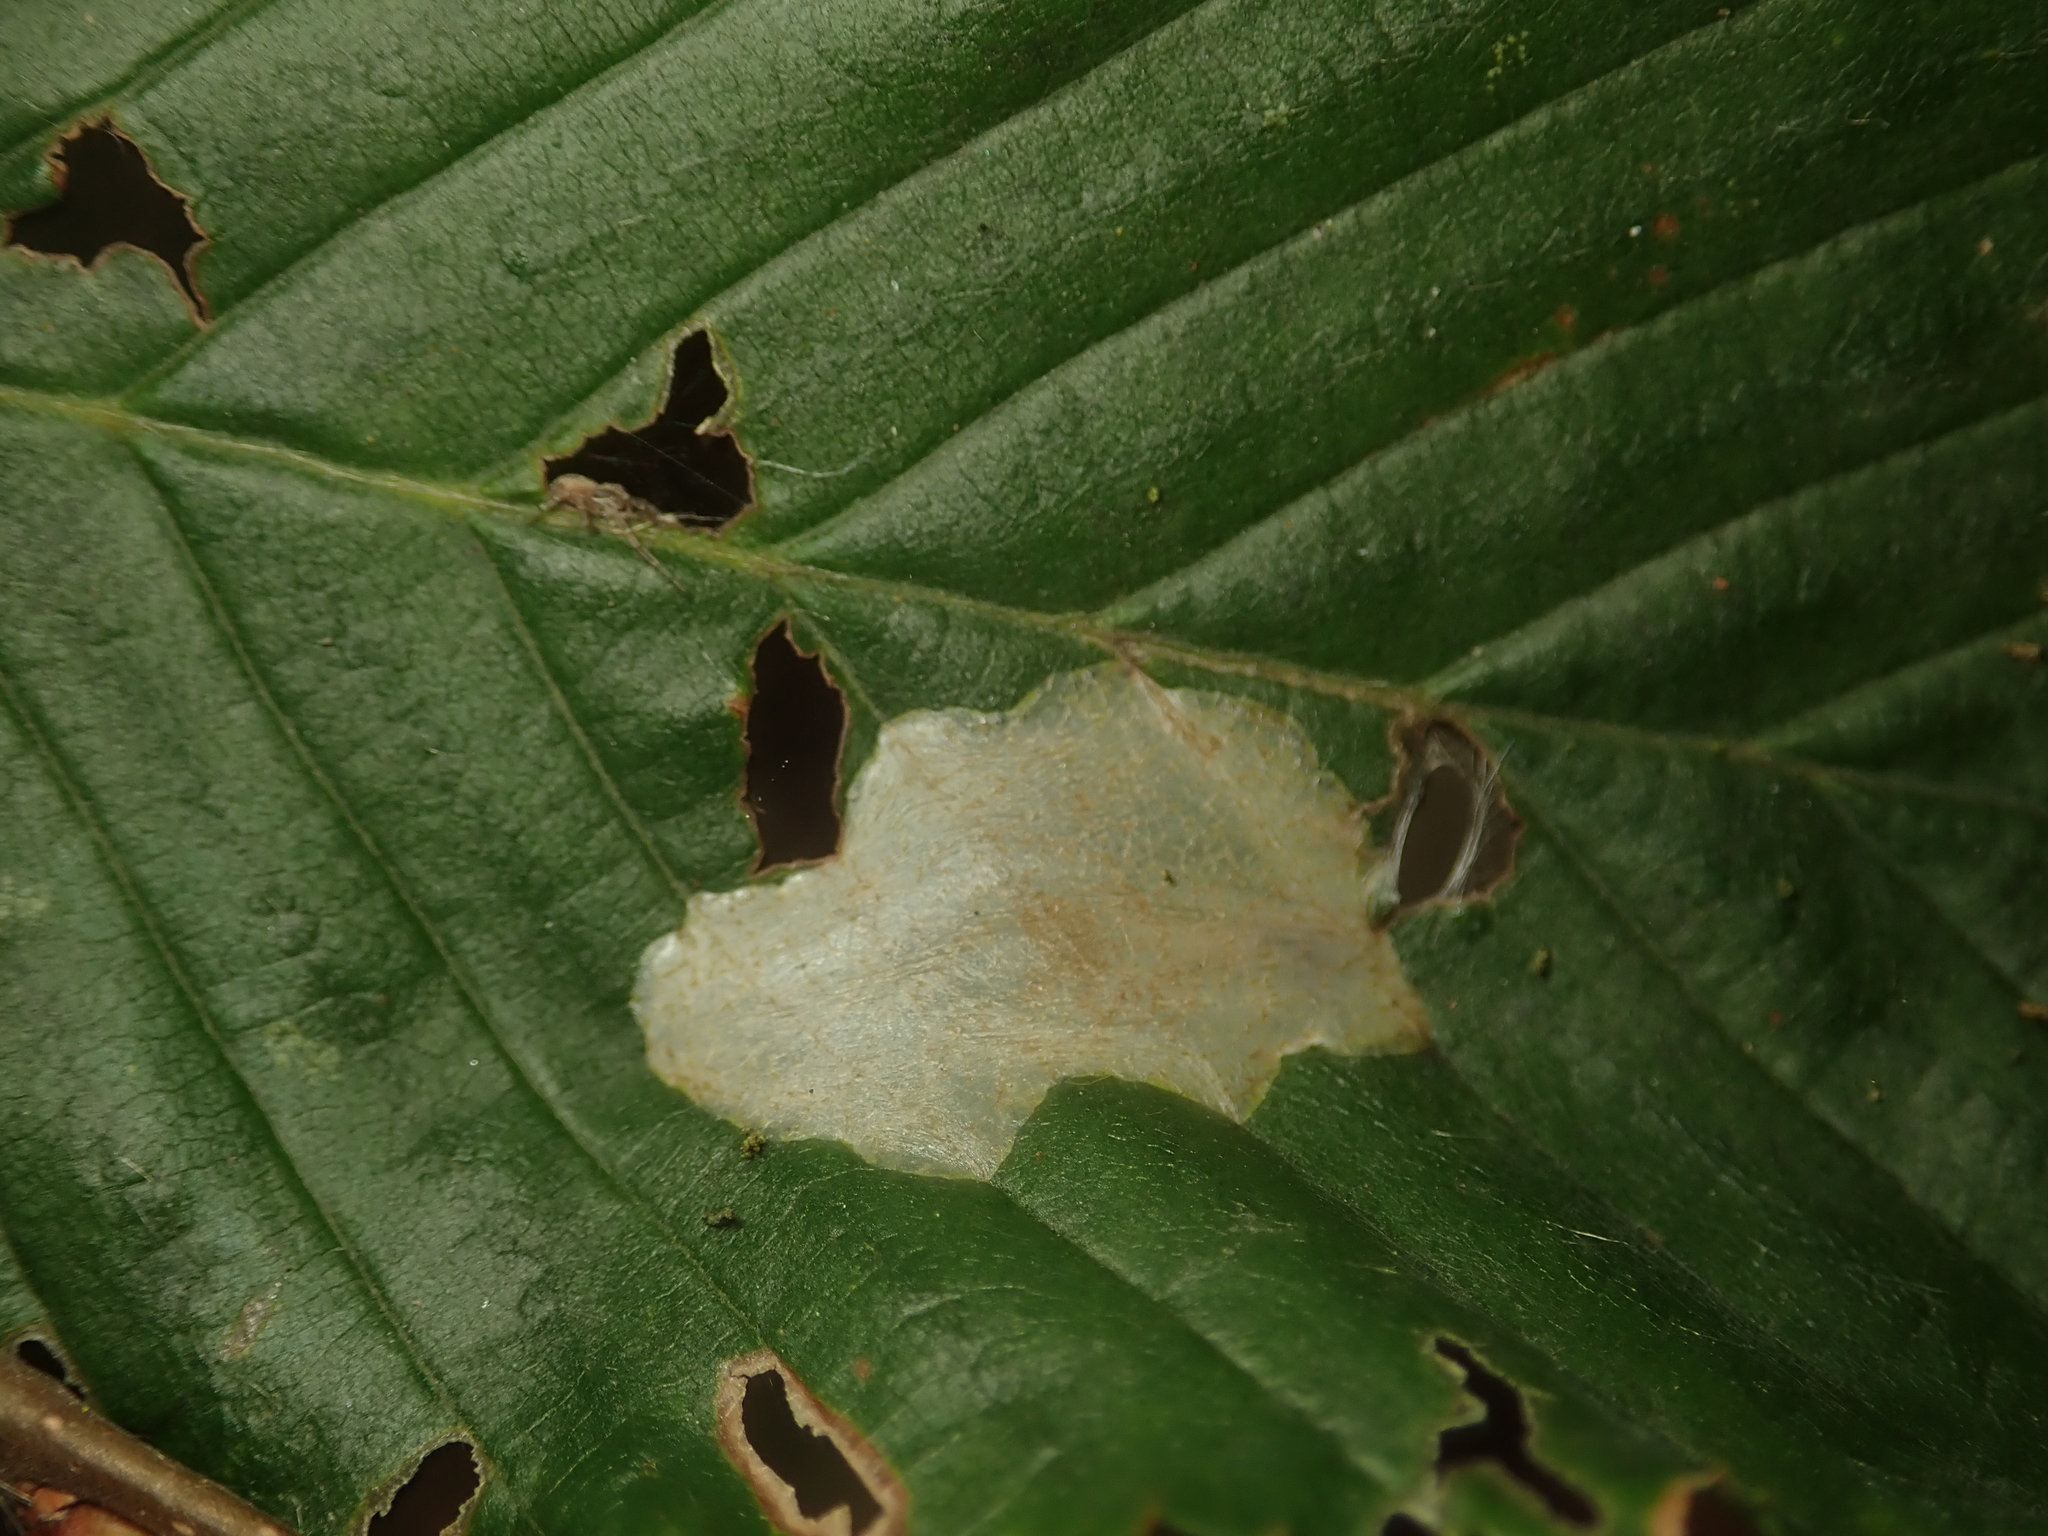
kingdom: Animalia
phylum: Arthropoda
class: Insecta
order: Lepidoptera
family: Gracillariidae
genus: Phyllonorycter
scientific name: Phyllonorycter esperella
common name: Dark hornbeam midget
